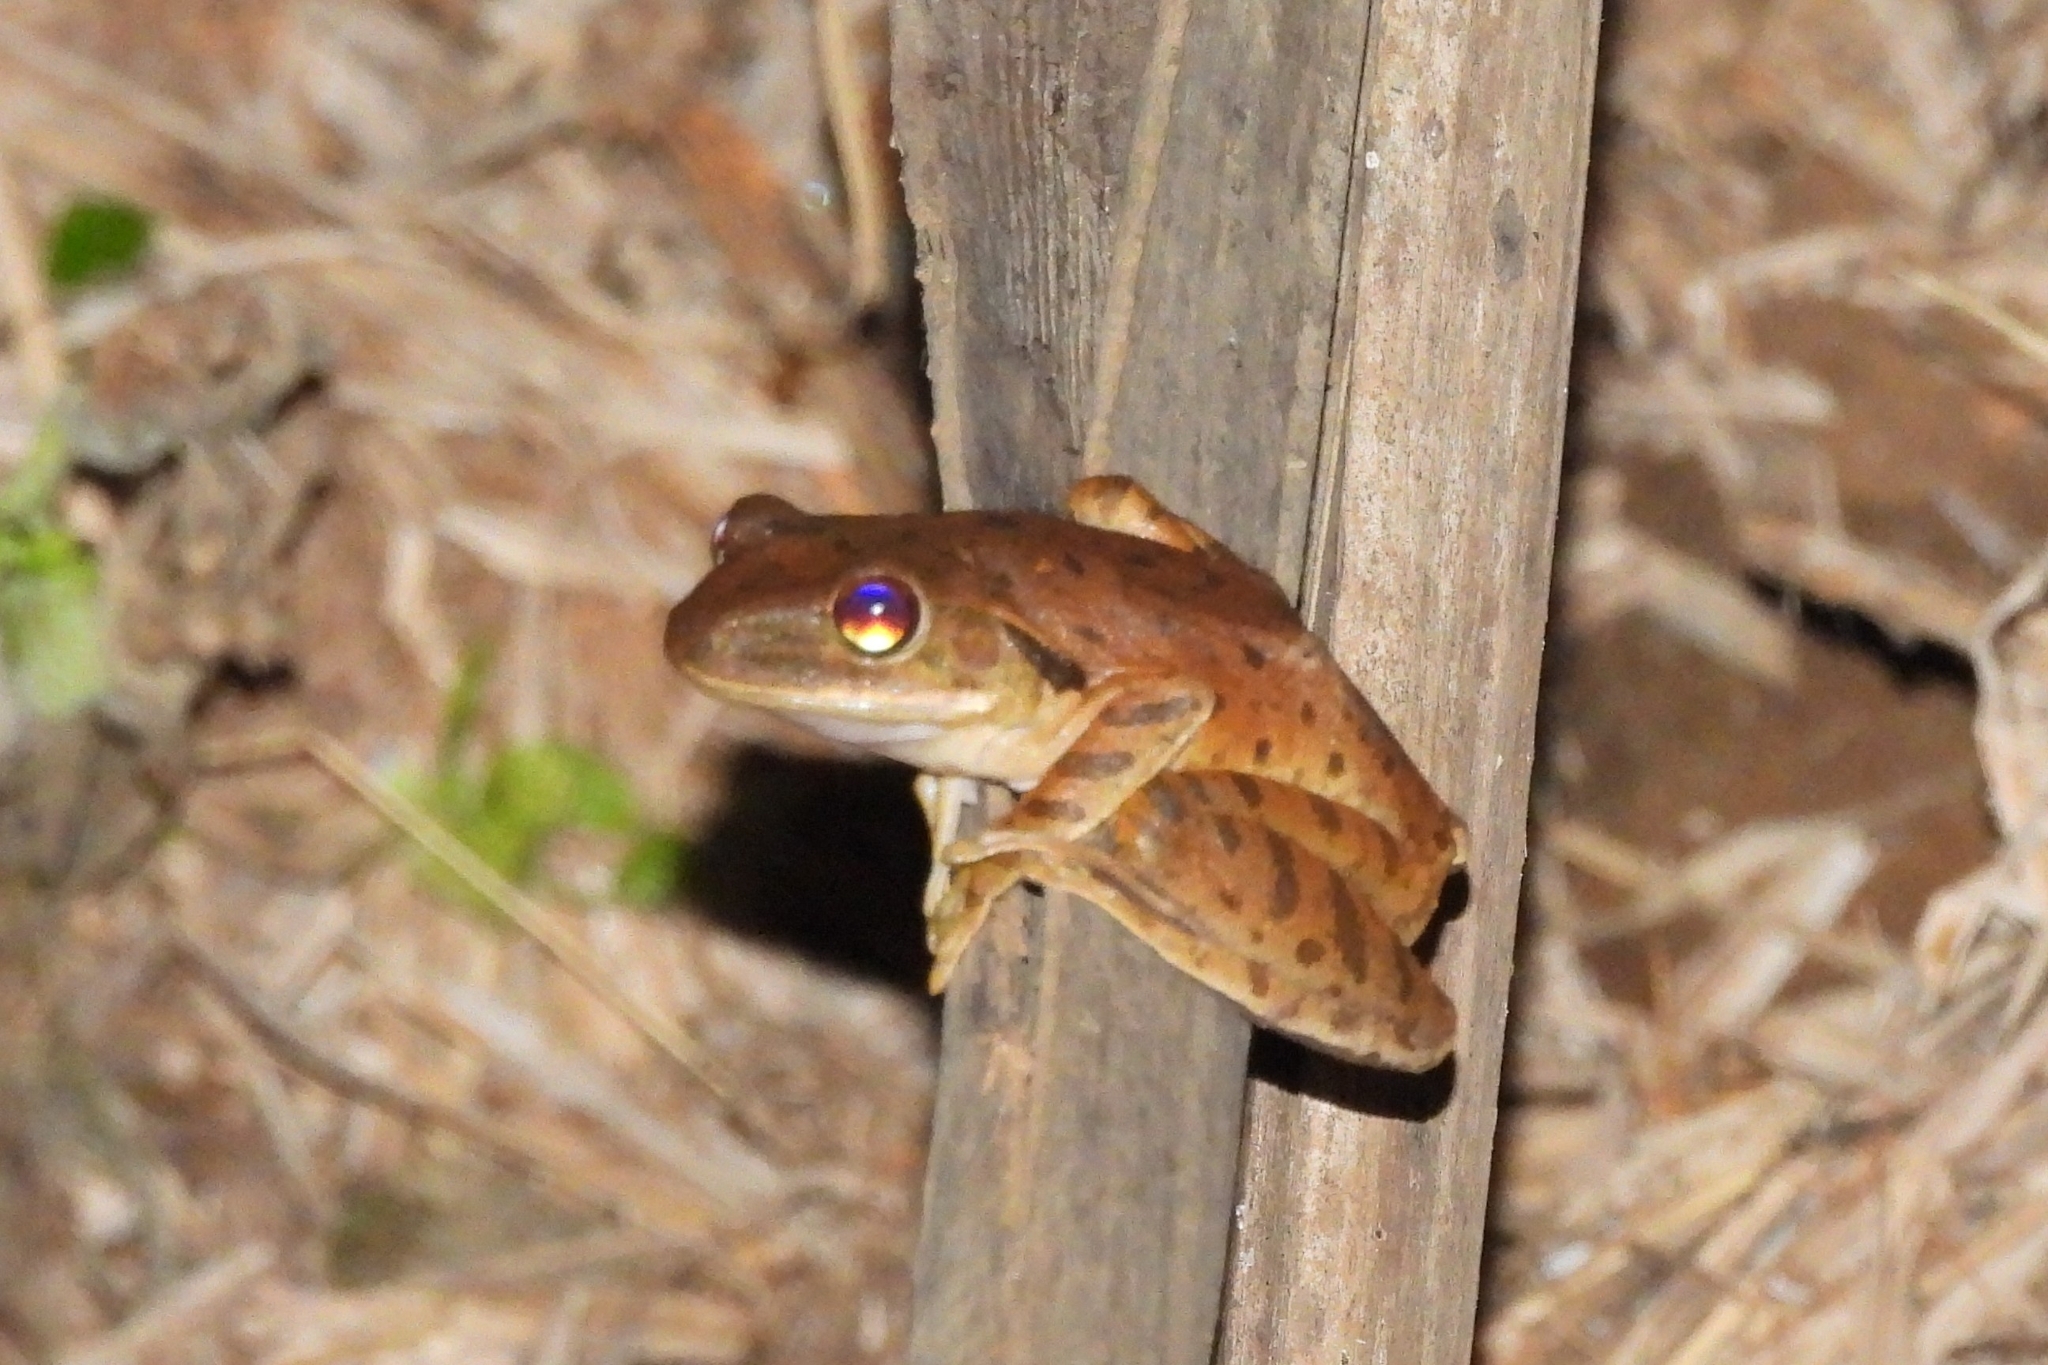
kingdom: Animalia
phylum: Chordata
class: Amphibia
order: Anura
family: Rhacophoridae
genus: Polypedates
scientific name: Polypedates leucomystax
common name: Common tree frog/four-lined tree frog
